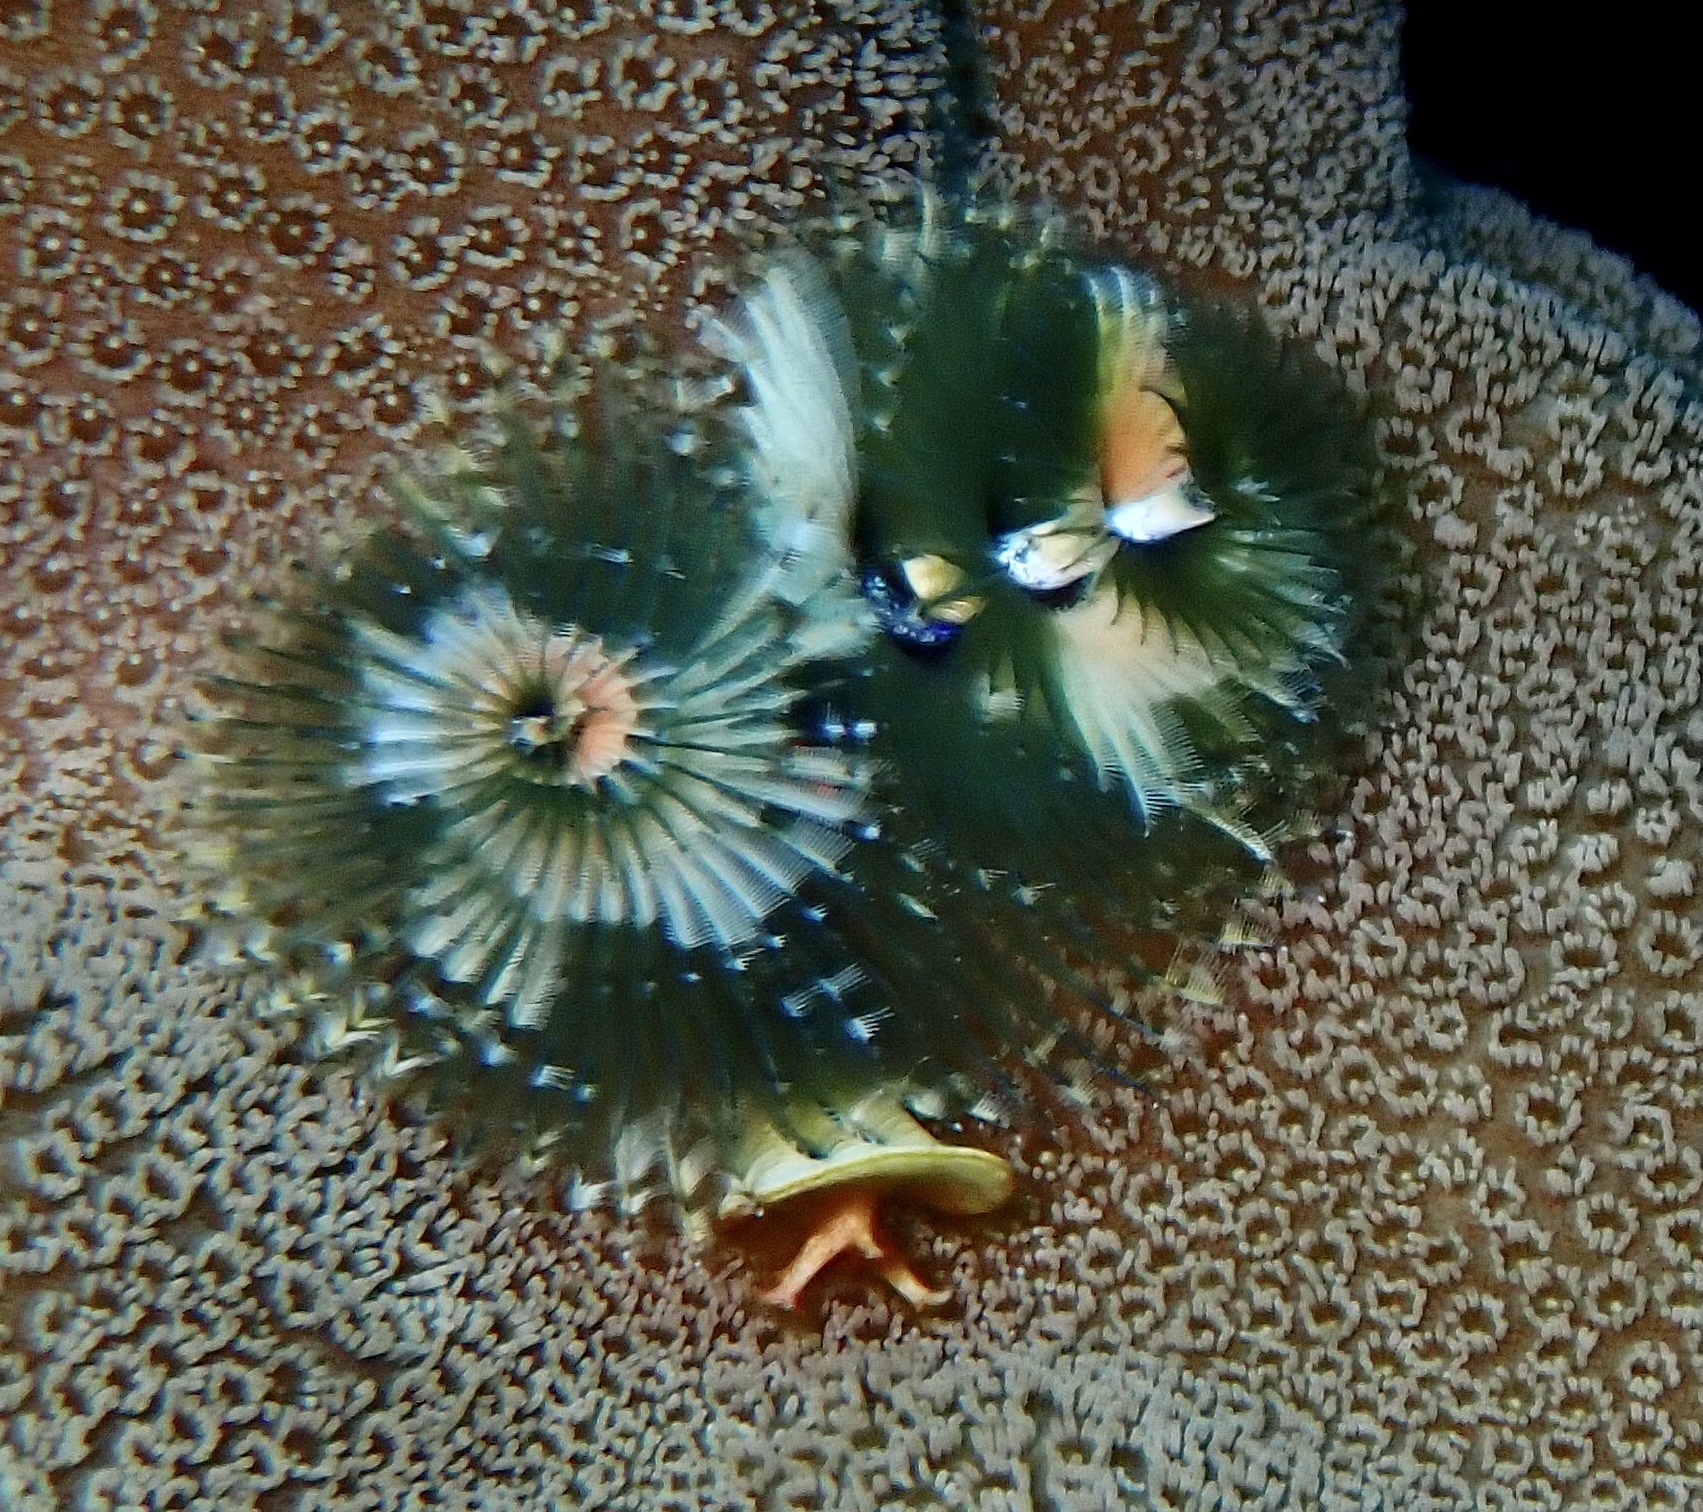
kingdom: Animalia
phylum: Annelida
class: Polychaeta
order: Sabellida
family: Serpulidae
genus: Spirobranchus
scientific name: Spirobranchus
